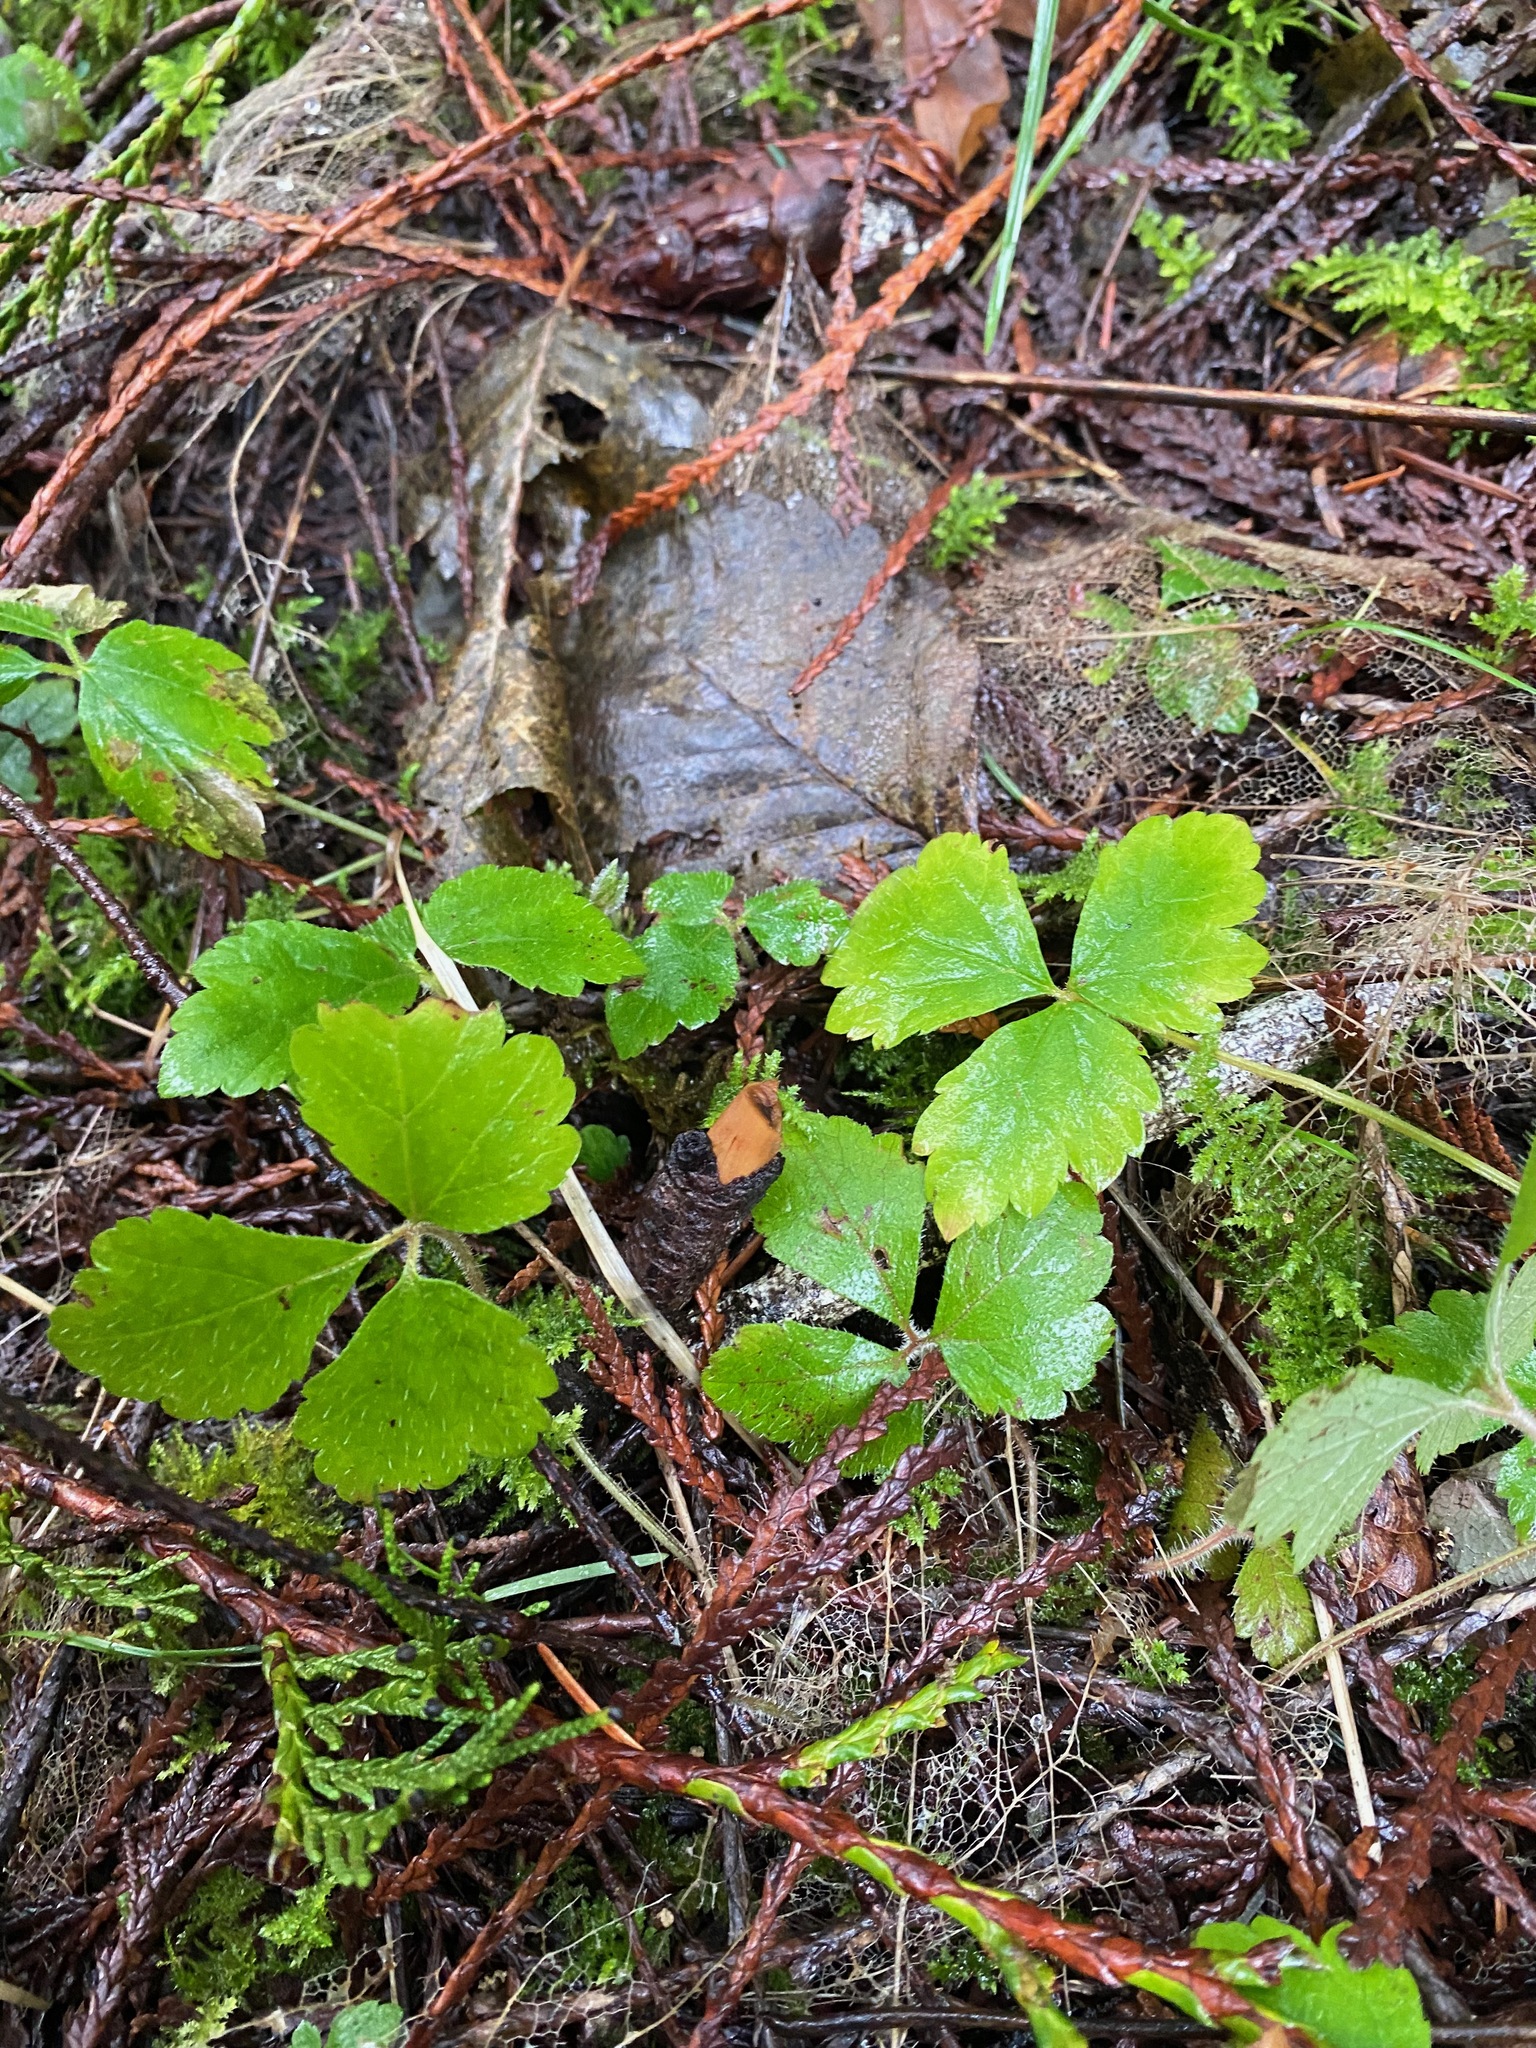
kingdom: Plantae
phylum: Tracheophyta
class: Magnoliopsida
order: Saxifragales
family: Saxifragaceae
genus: Tiarella
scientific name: Tiarella trifoliata
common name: Sugar-scoop
